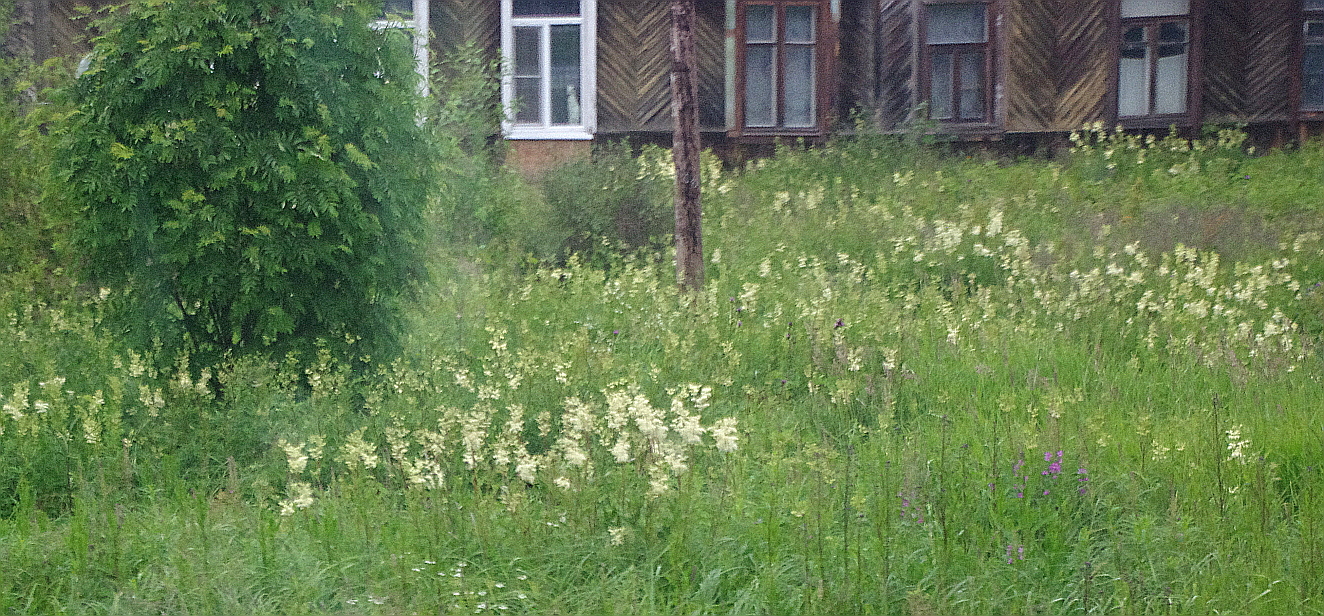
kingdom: Plantae
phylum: Tracheophyta
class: Magnoliopsida
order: Rosales
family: Rosaceae
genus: Filipendula
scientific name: Filipendula ulmaria
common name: Meadowsweet
